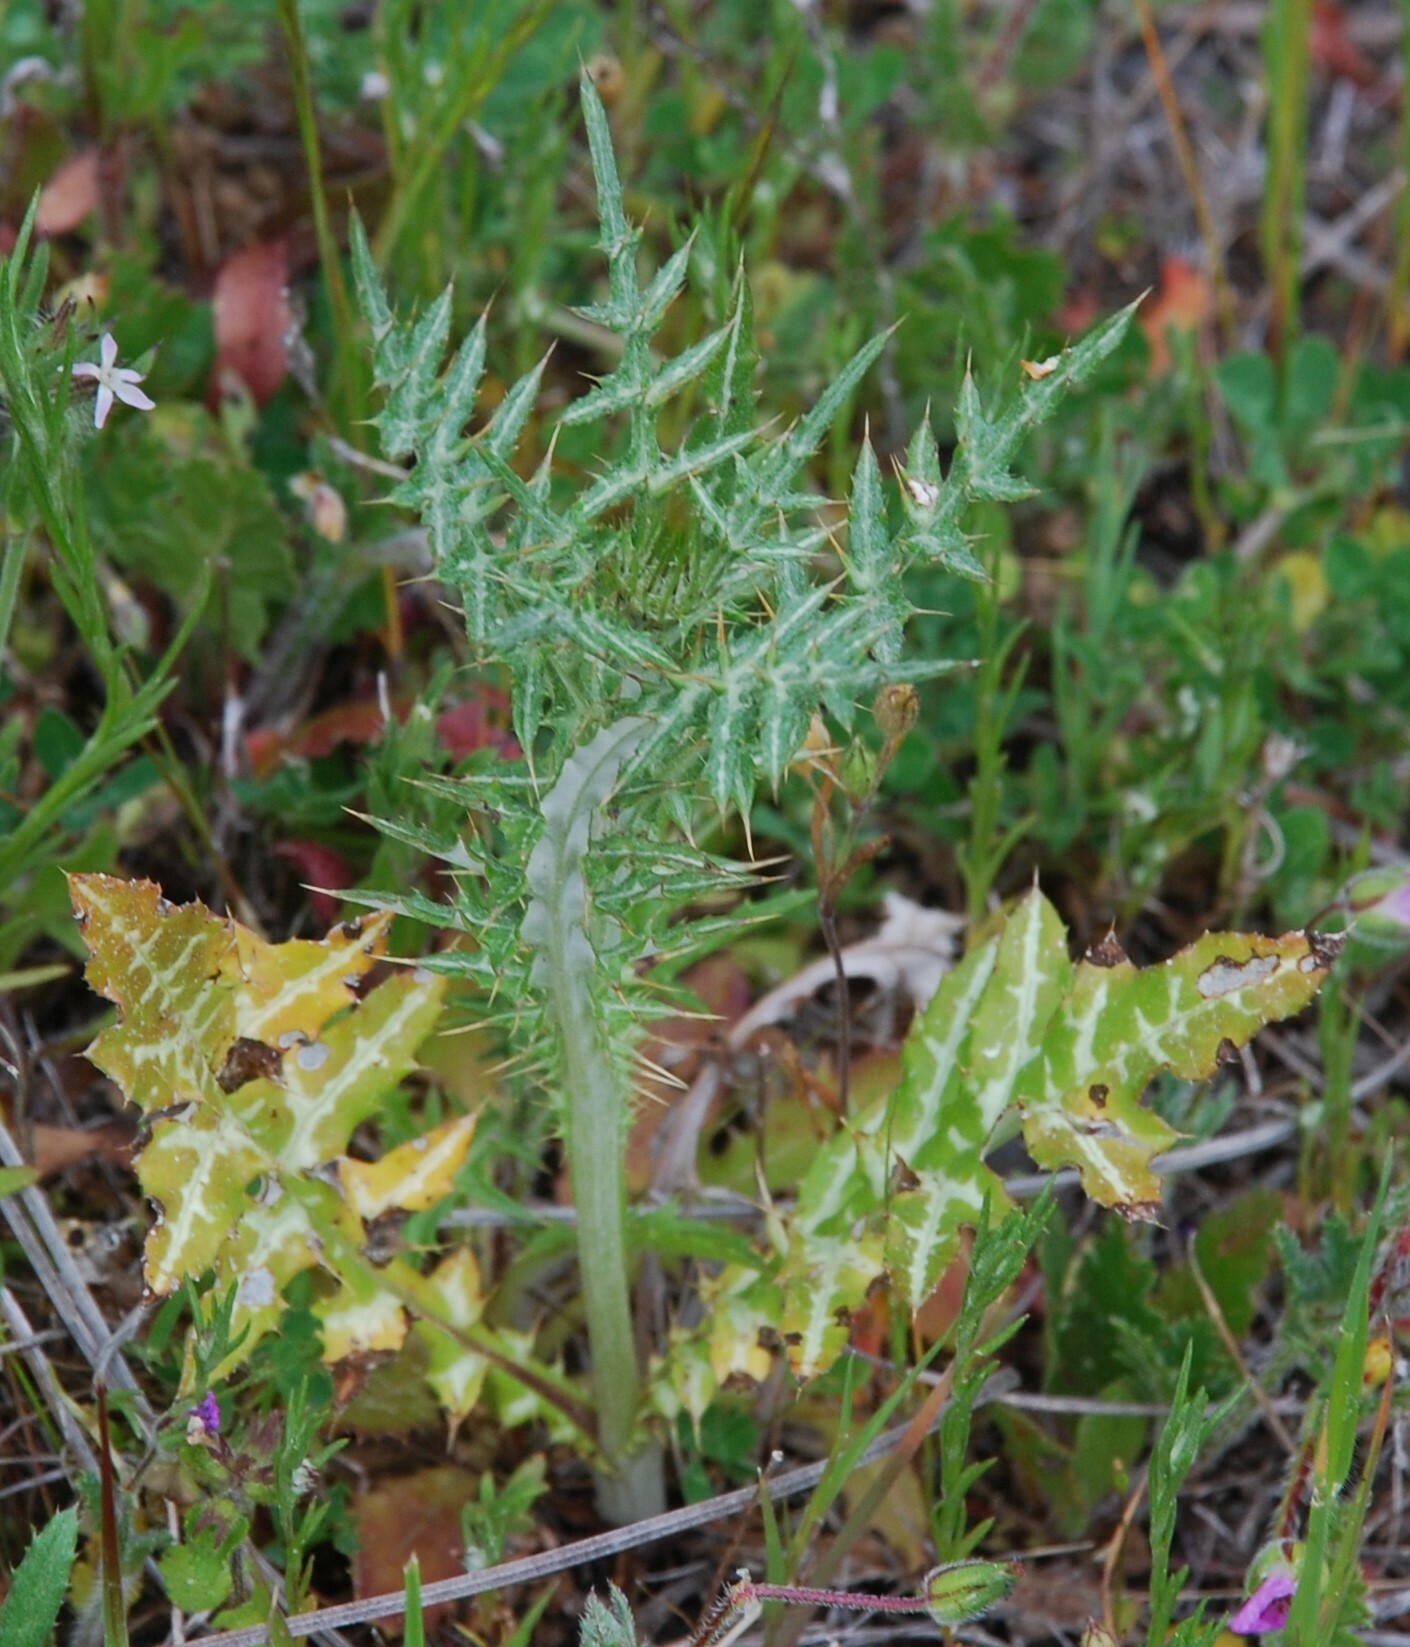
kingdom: Plantae
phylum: Tracheophyta
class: Magnoliopsida
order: Asterales
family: Asteraceae
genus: Galactites
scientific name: Galactites tomentosa
